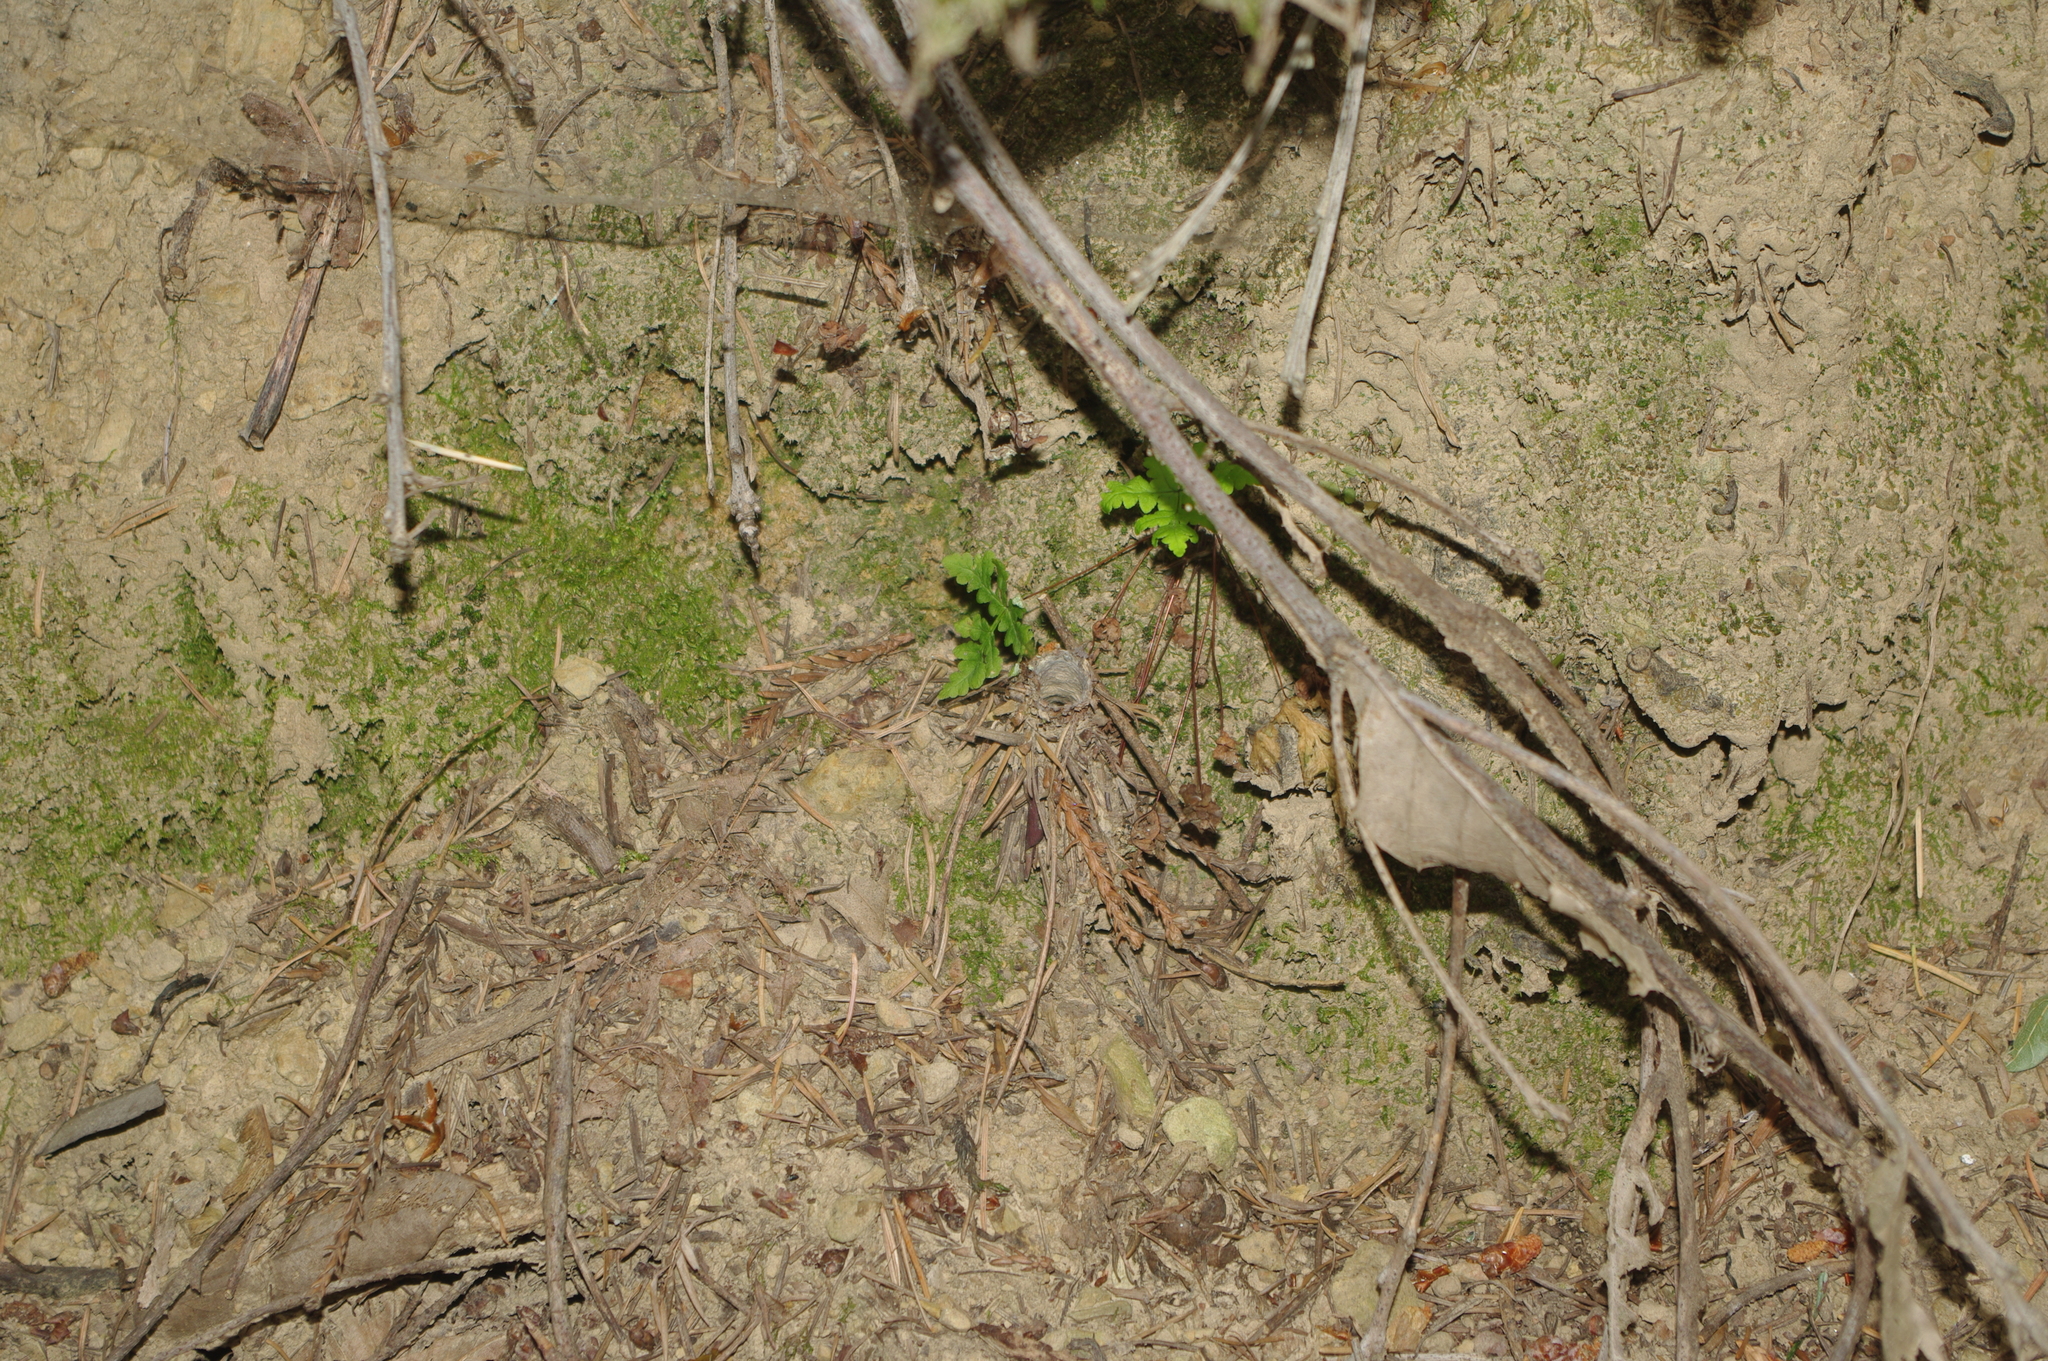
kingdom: Animalia
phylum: Arthropoda
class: Arachnida
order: Araneae
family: Antrodiaetidae
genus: Atypoides
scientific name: Atypoides riversi
